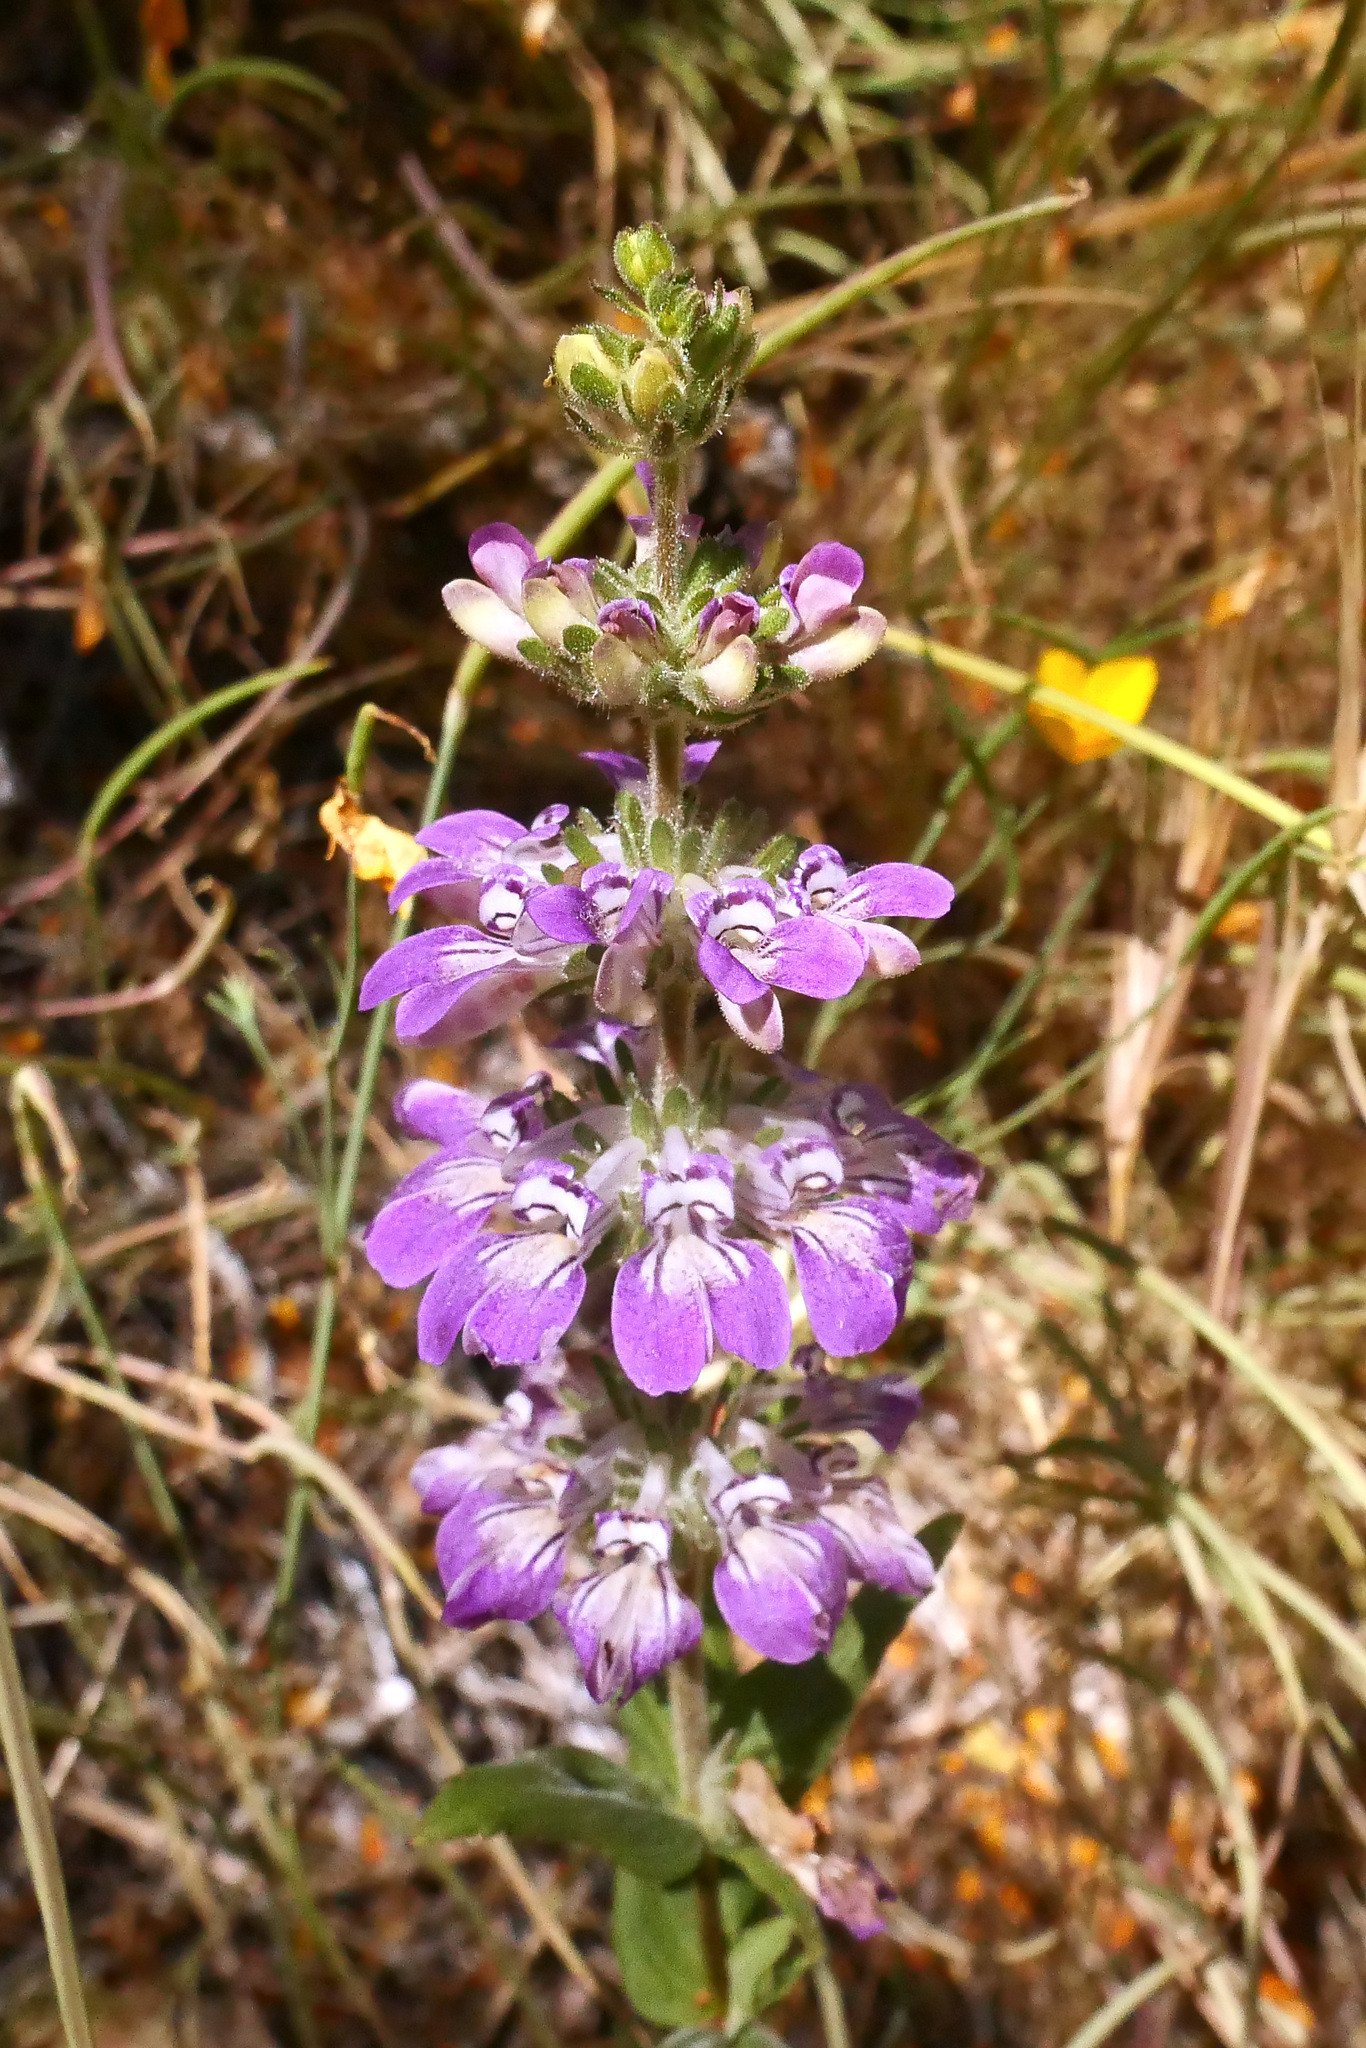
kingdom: Plantae
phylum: Tracheophyta
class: Magnoliopsida
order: Lamiales
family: Plantaginaceae
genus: Collinsia
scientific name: Collinsia tinctoria
